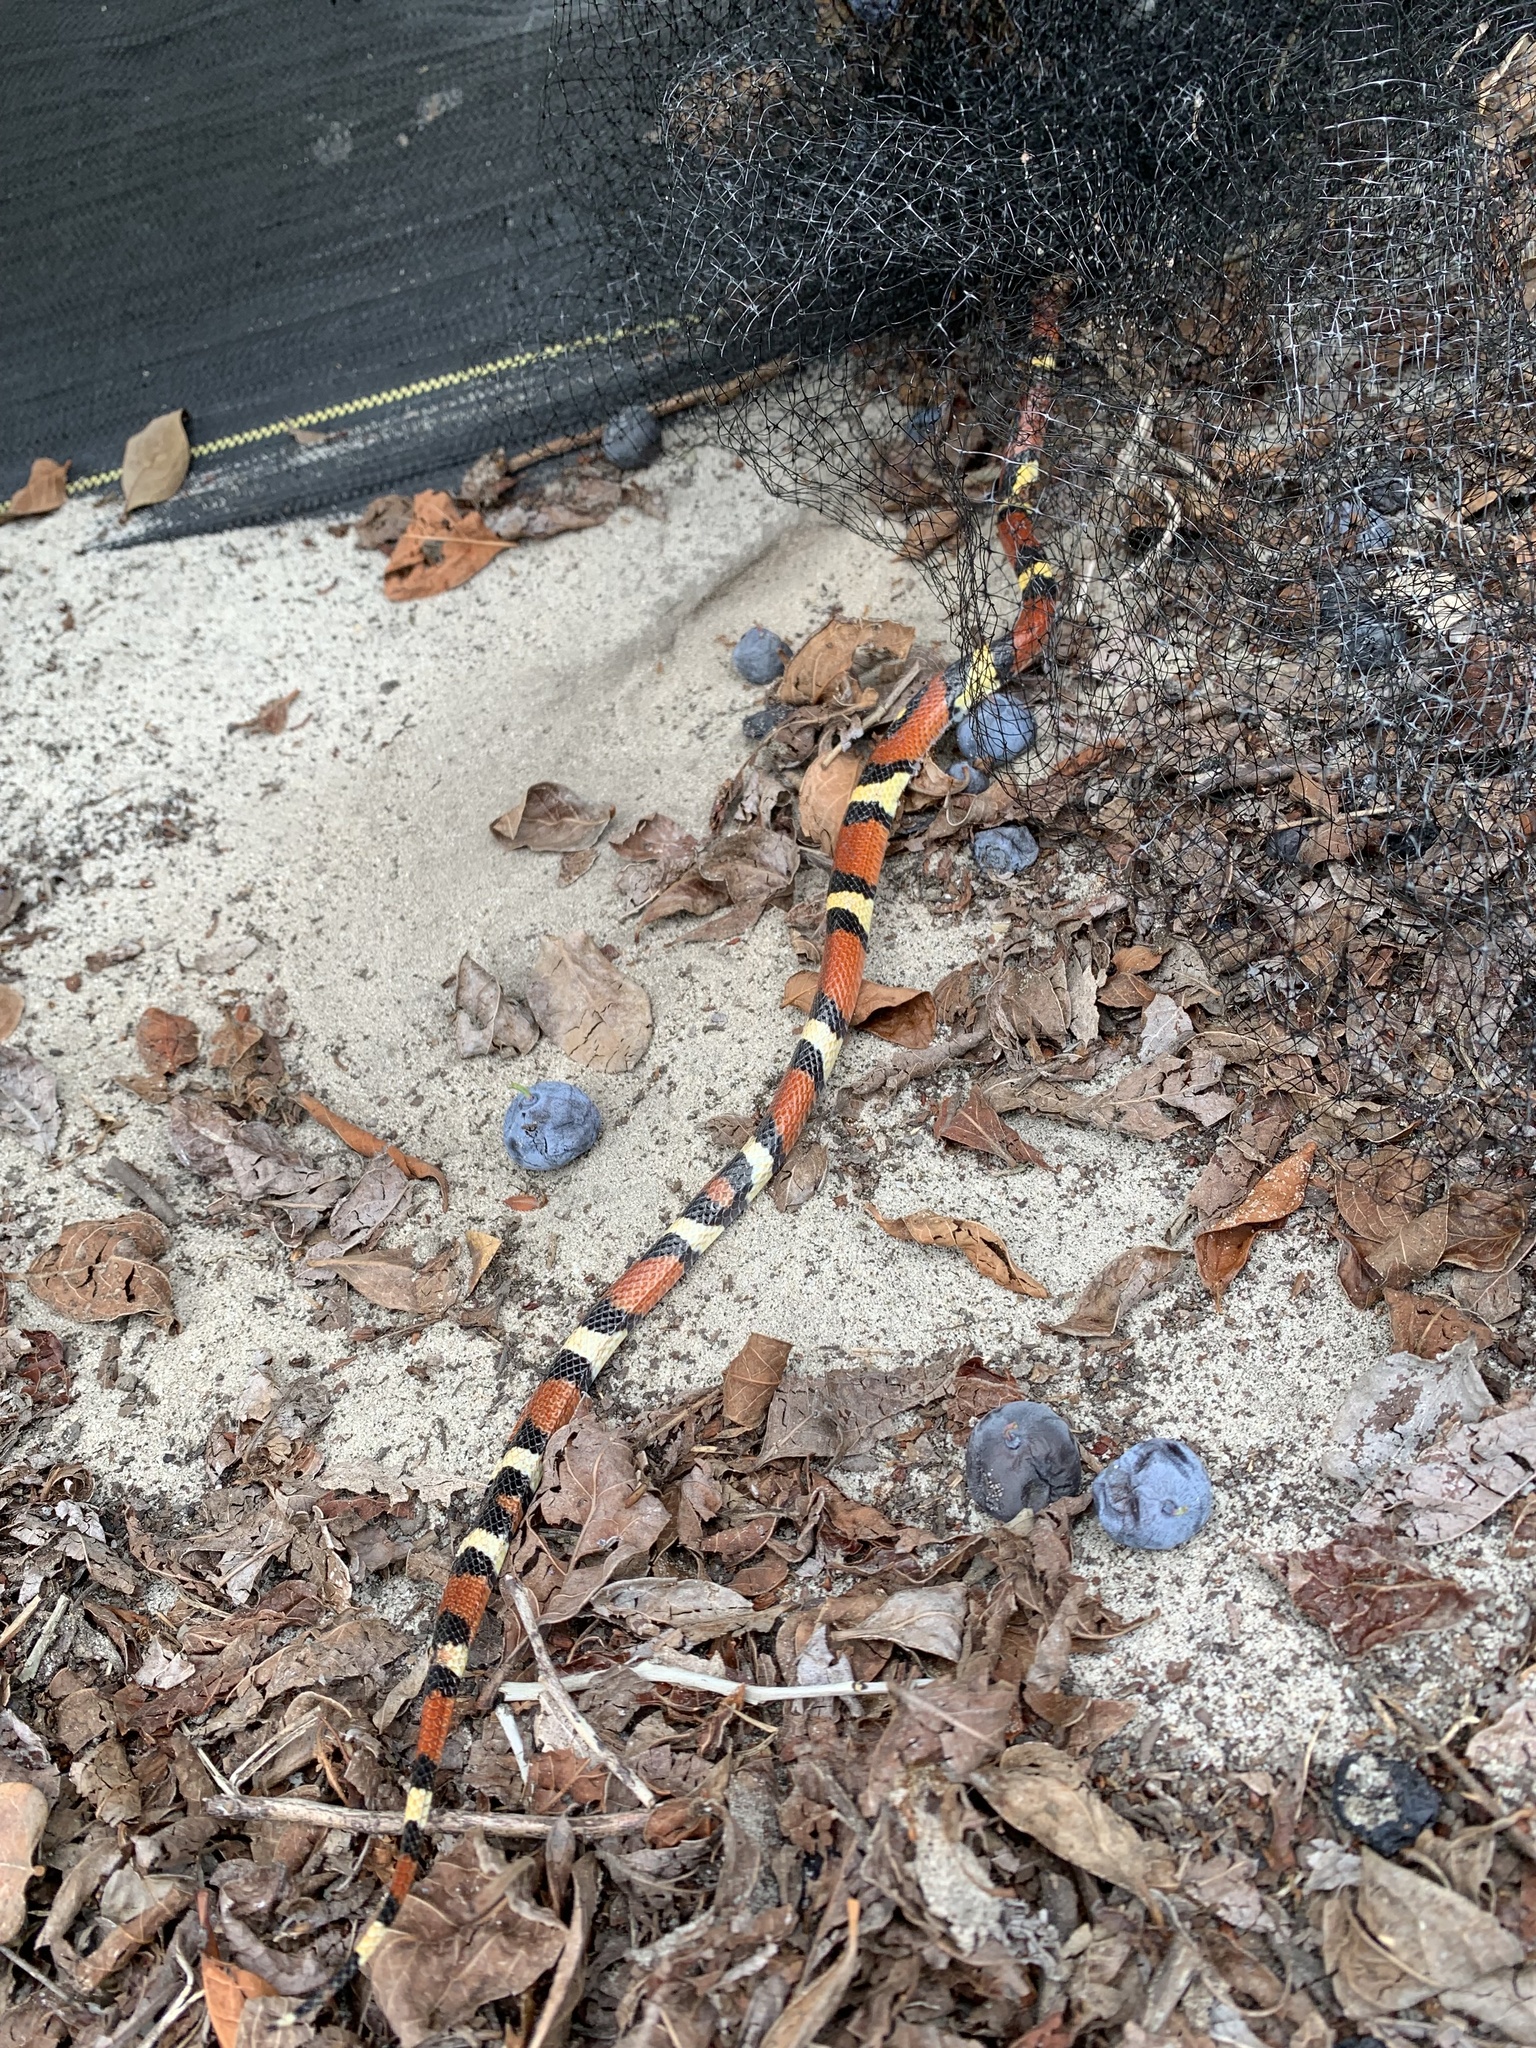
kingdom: Animalia
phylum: Chordata
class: Squamata
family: Colubridae
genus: Lampropeltis
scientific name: Lampropeltis elapsoides
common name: Scarlet kingsnake
